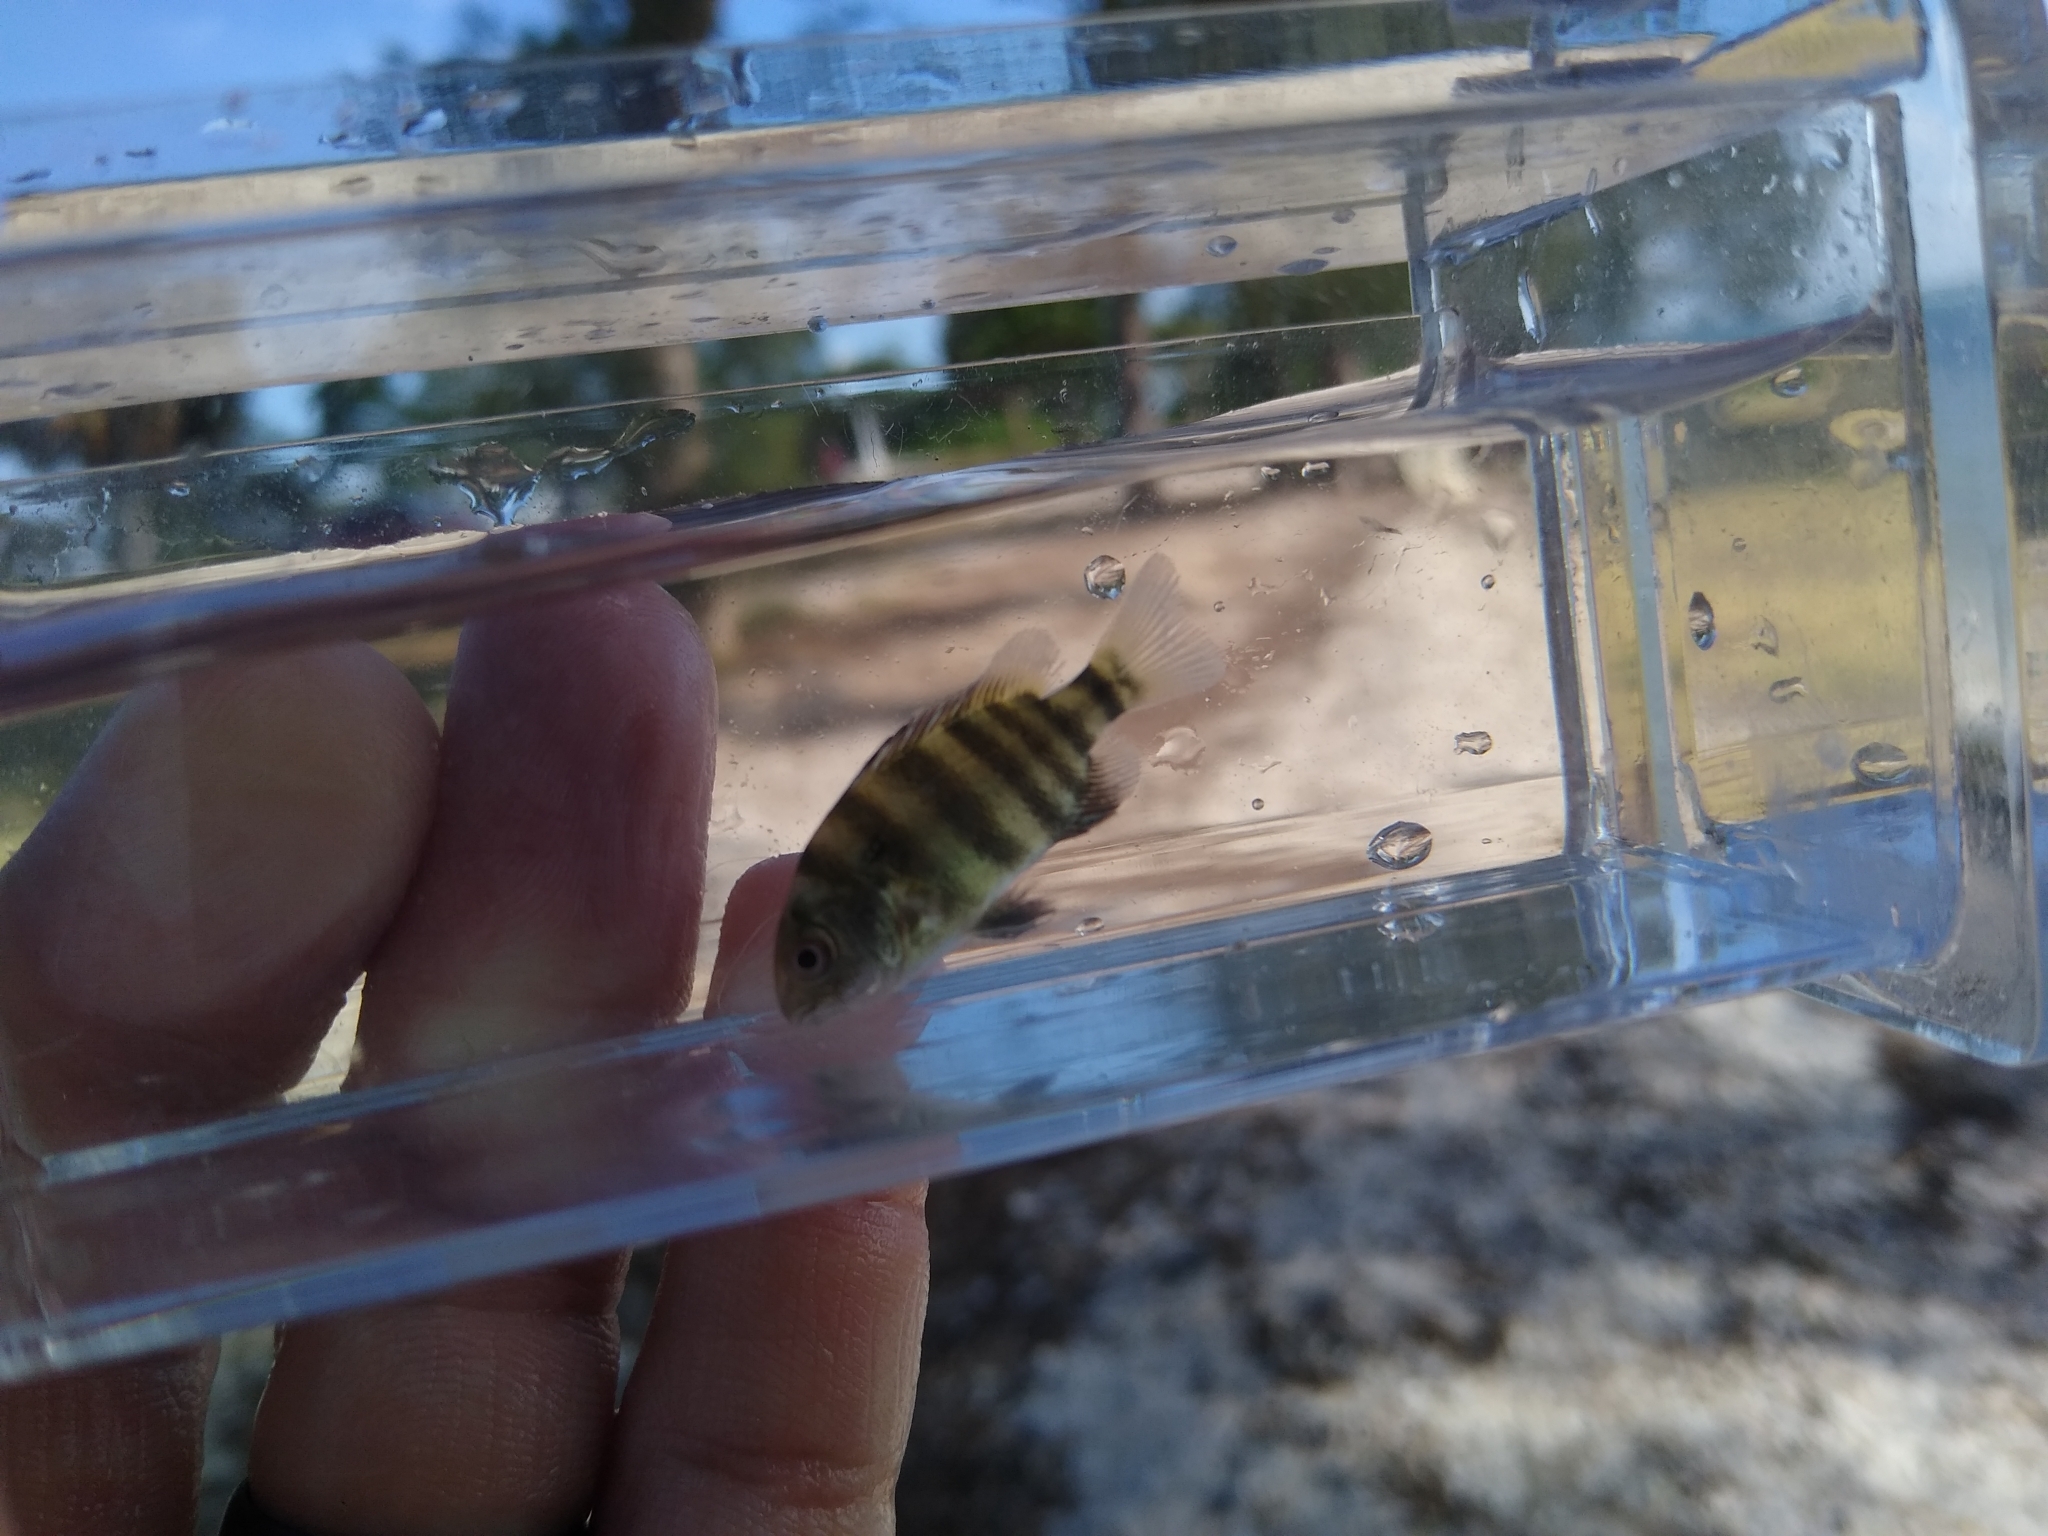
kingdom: Animalia
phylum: Chordata
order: Perciformes
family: Sparidae
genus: Archosargus
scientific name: Archosargus probatocephalus
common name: Sheepshead
